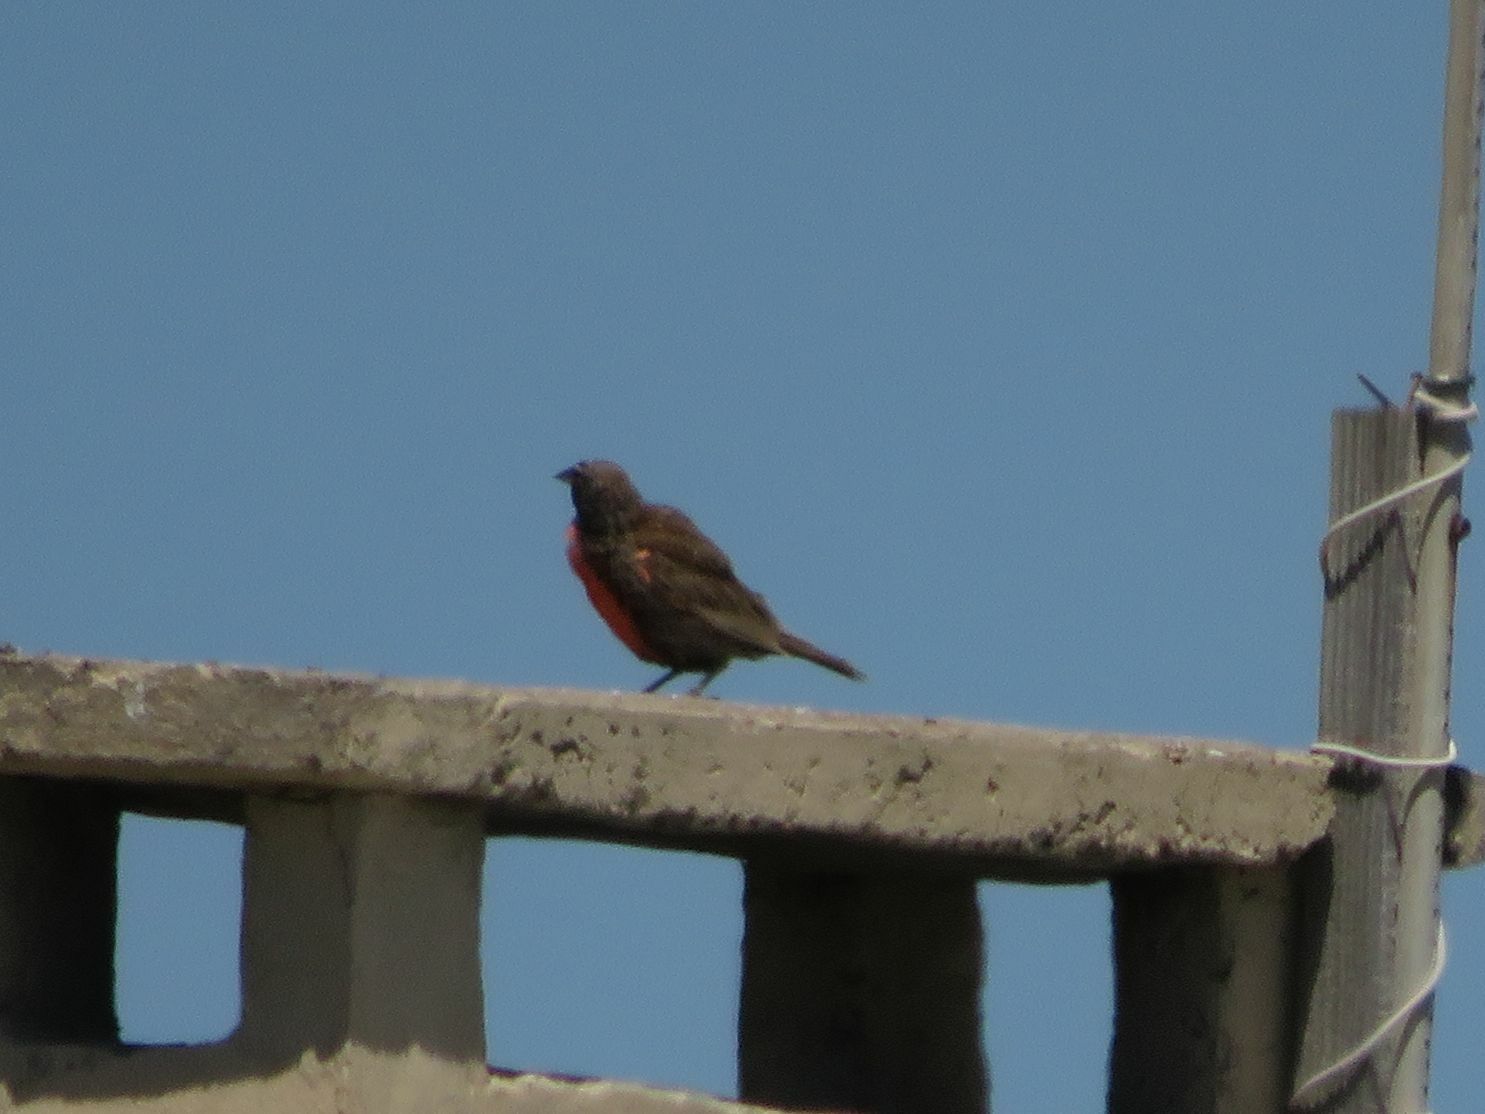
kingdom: Animalia
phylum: Chordata
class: Aves
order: Passeriformes
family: Icteridae
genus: Sturnella
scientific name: Sturnella loyca
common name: Long-tailed meadowlark
